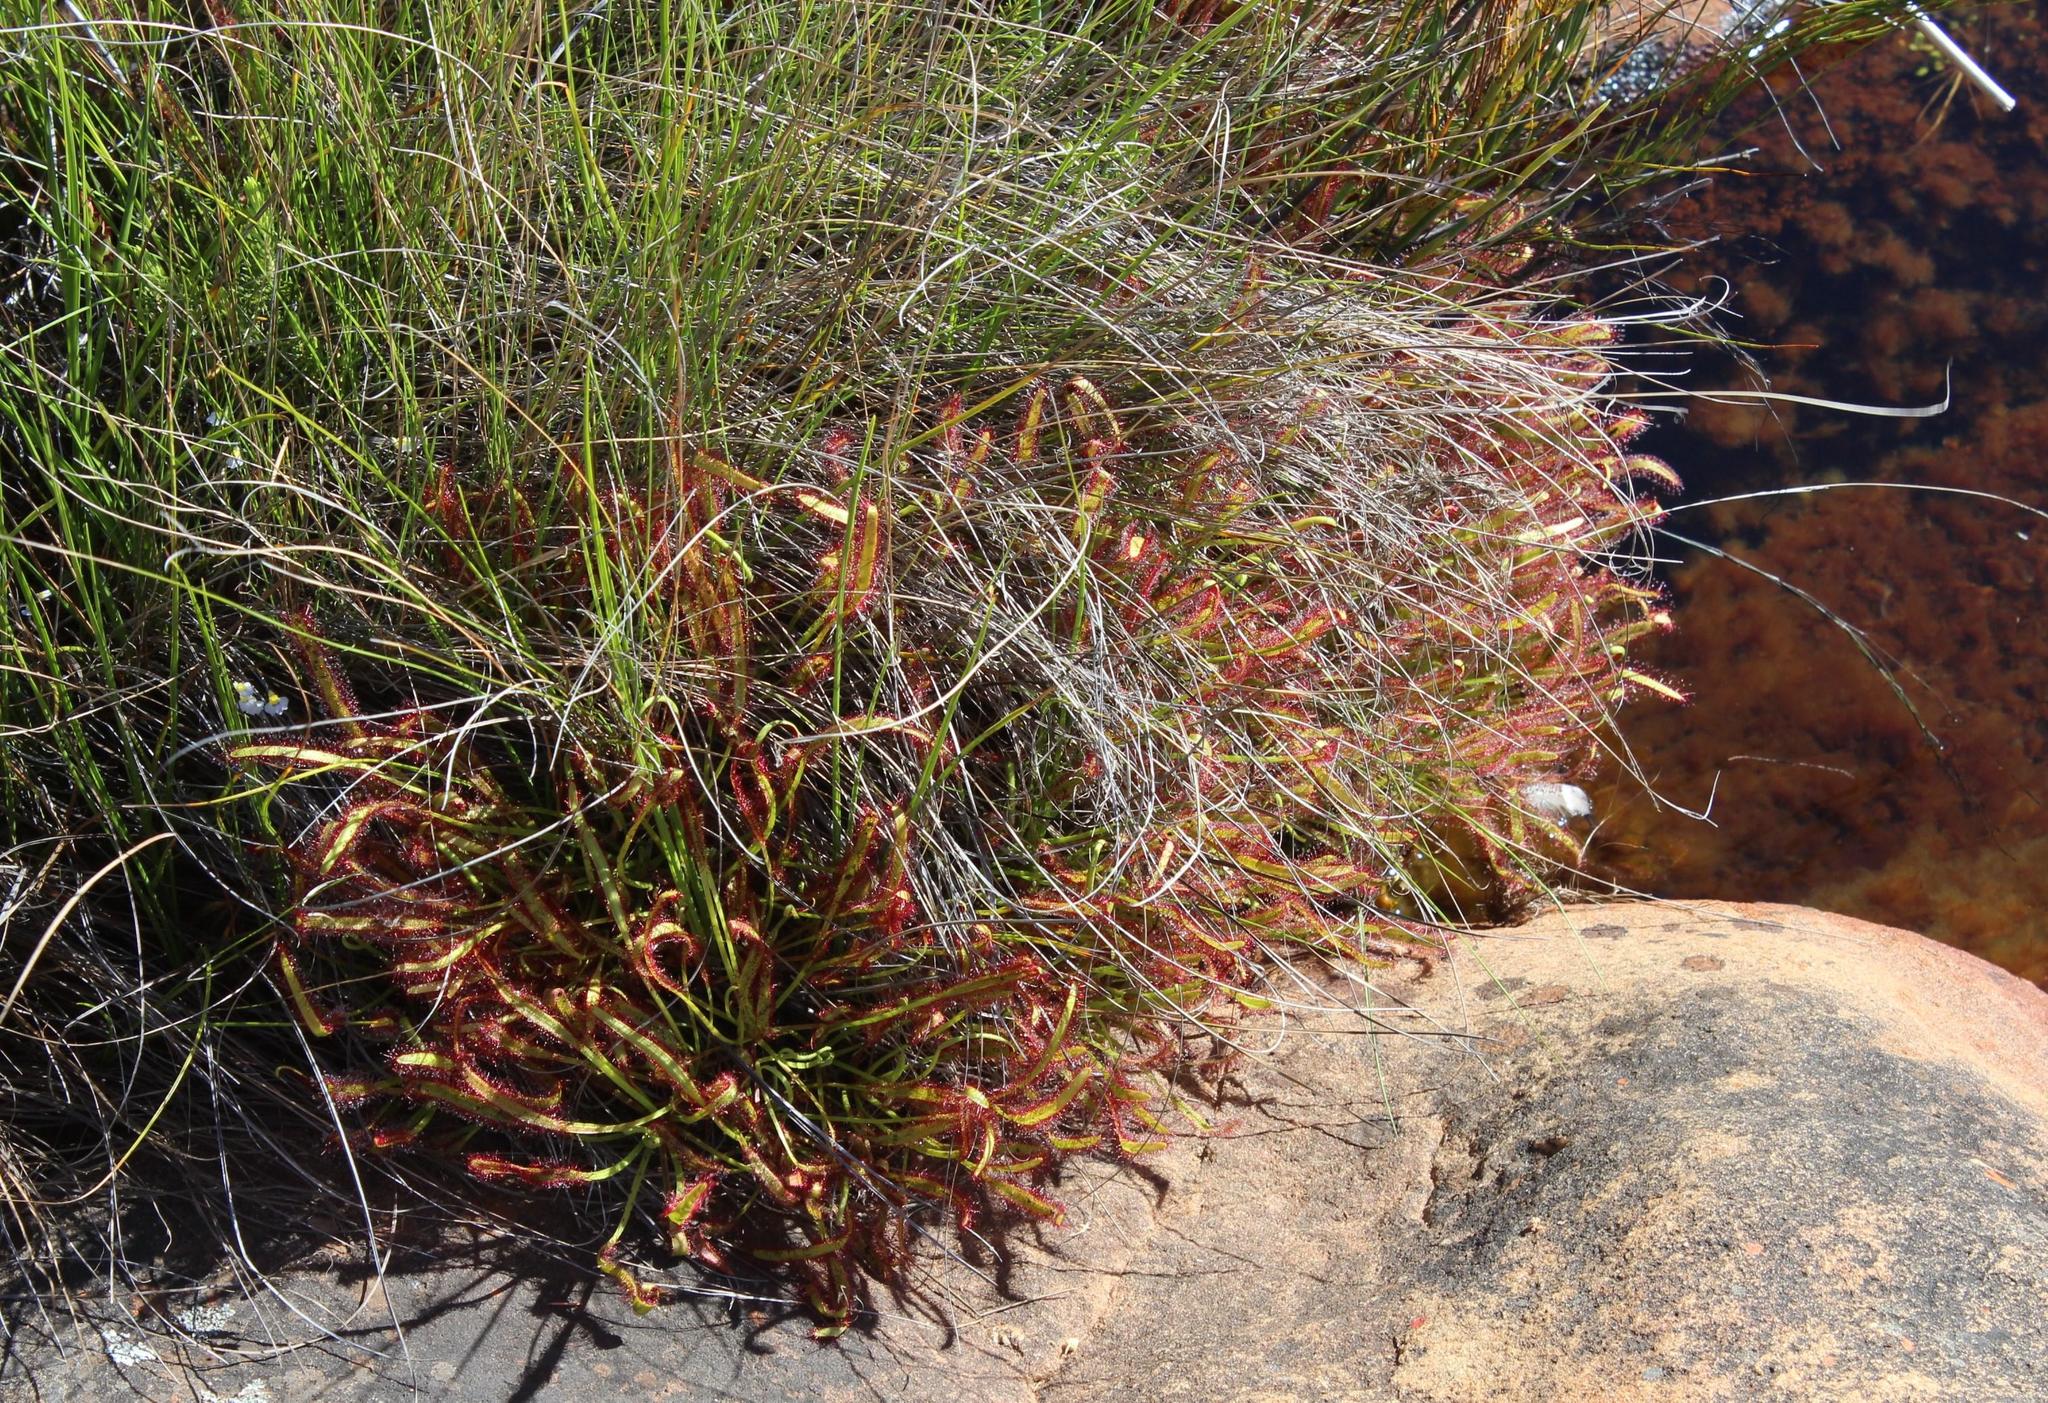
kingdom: Plantae
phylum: Tracheophyta
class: Magnoliopsida
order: Caryophyllales
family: Droseraceae
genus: Drosera
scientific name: Drosera capensis
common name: Cape sundew
